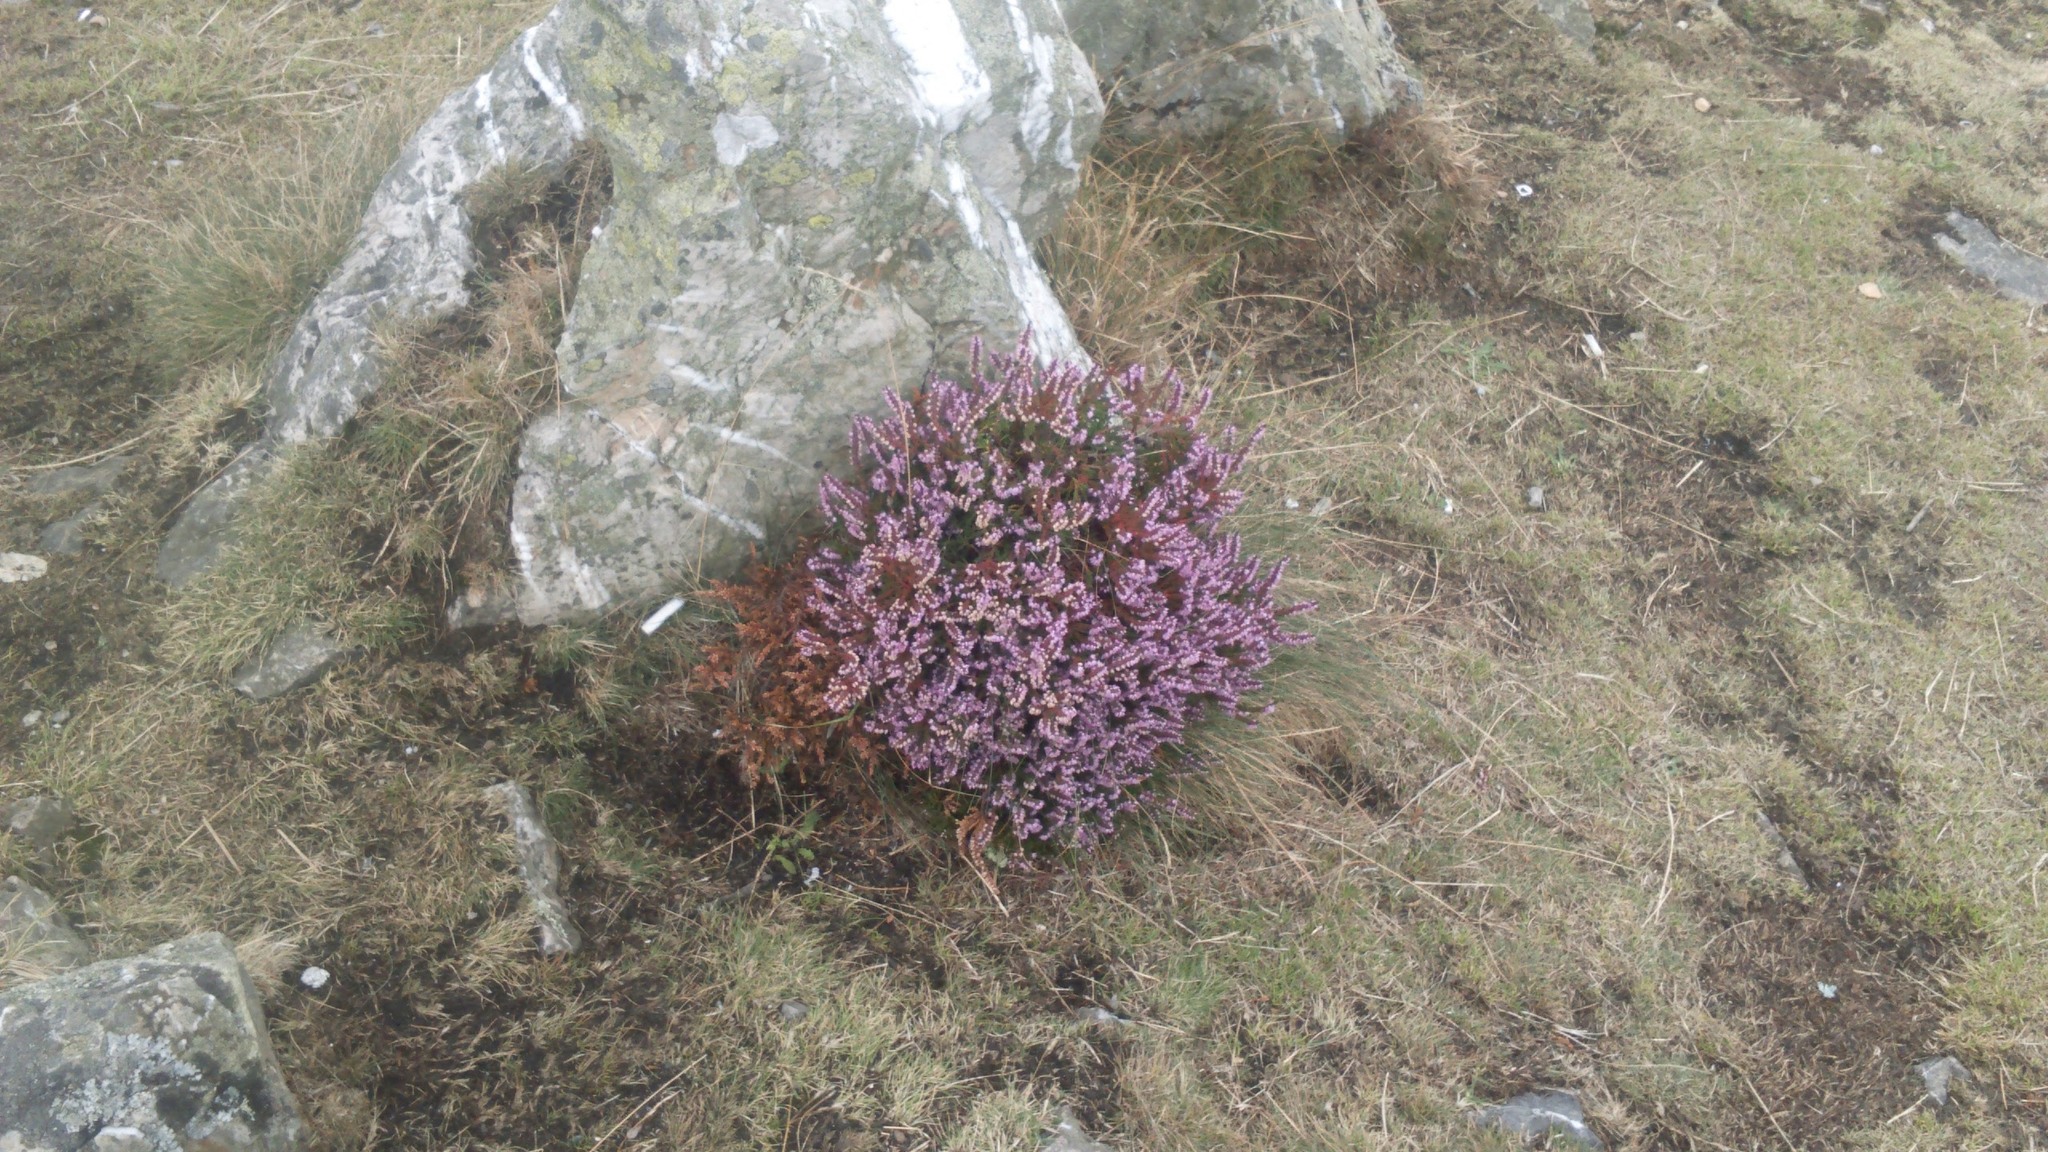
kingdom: Plantae
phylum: Tracheophyta
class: Magnoliopsida
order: Ericales
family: Ericaceae
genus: Calluna
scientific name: Calluna vulgaris
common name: Heather
